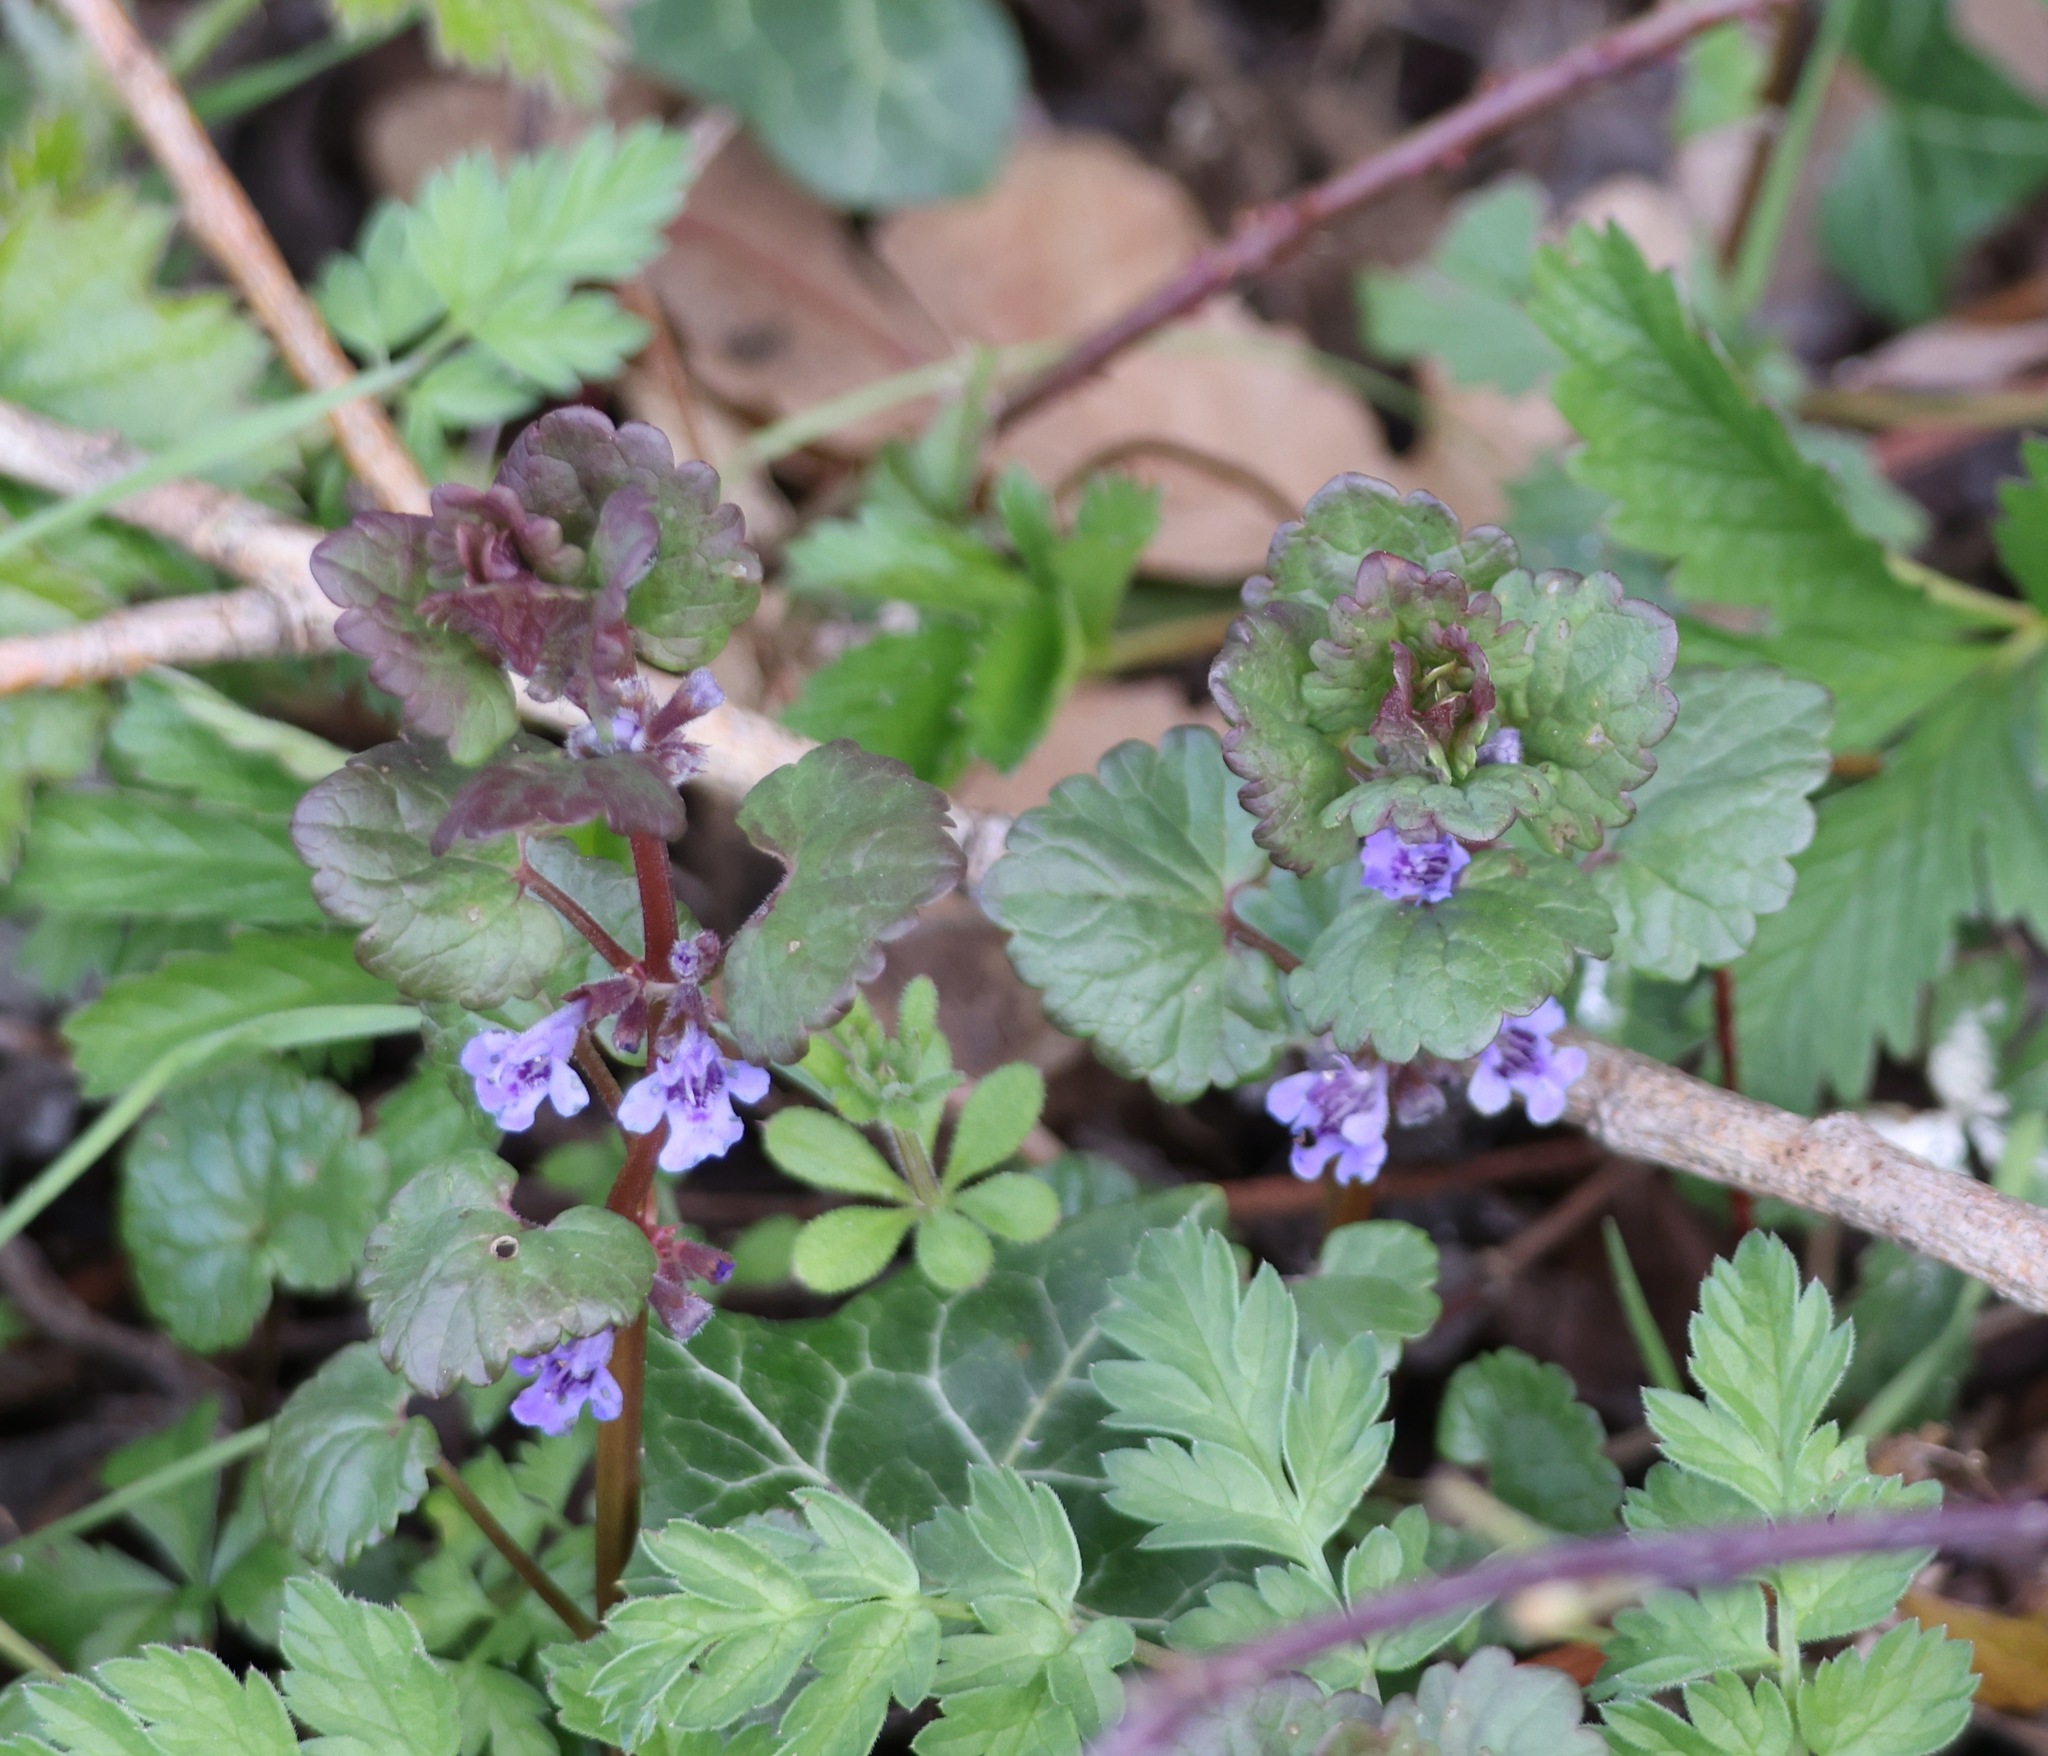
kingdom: Plantae
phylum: Tracheophyta
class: Magnoliopsida
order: Lamiales
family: Lamiaceae
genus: Glechoma
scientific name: Glechoma hederacea
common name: Ground ivy
